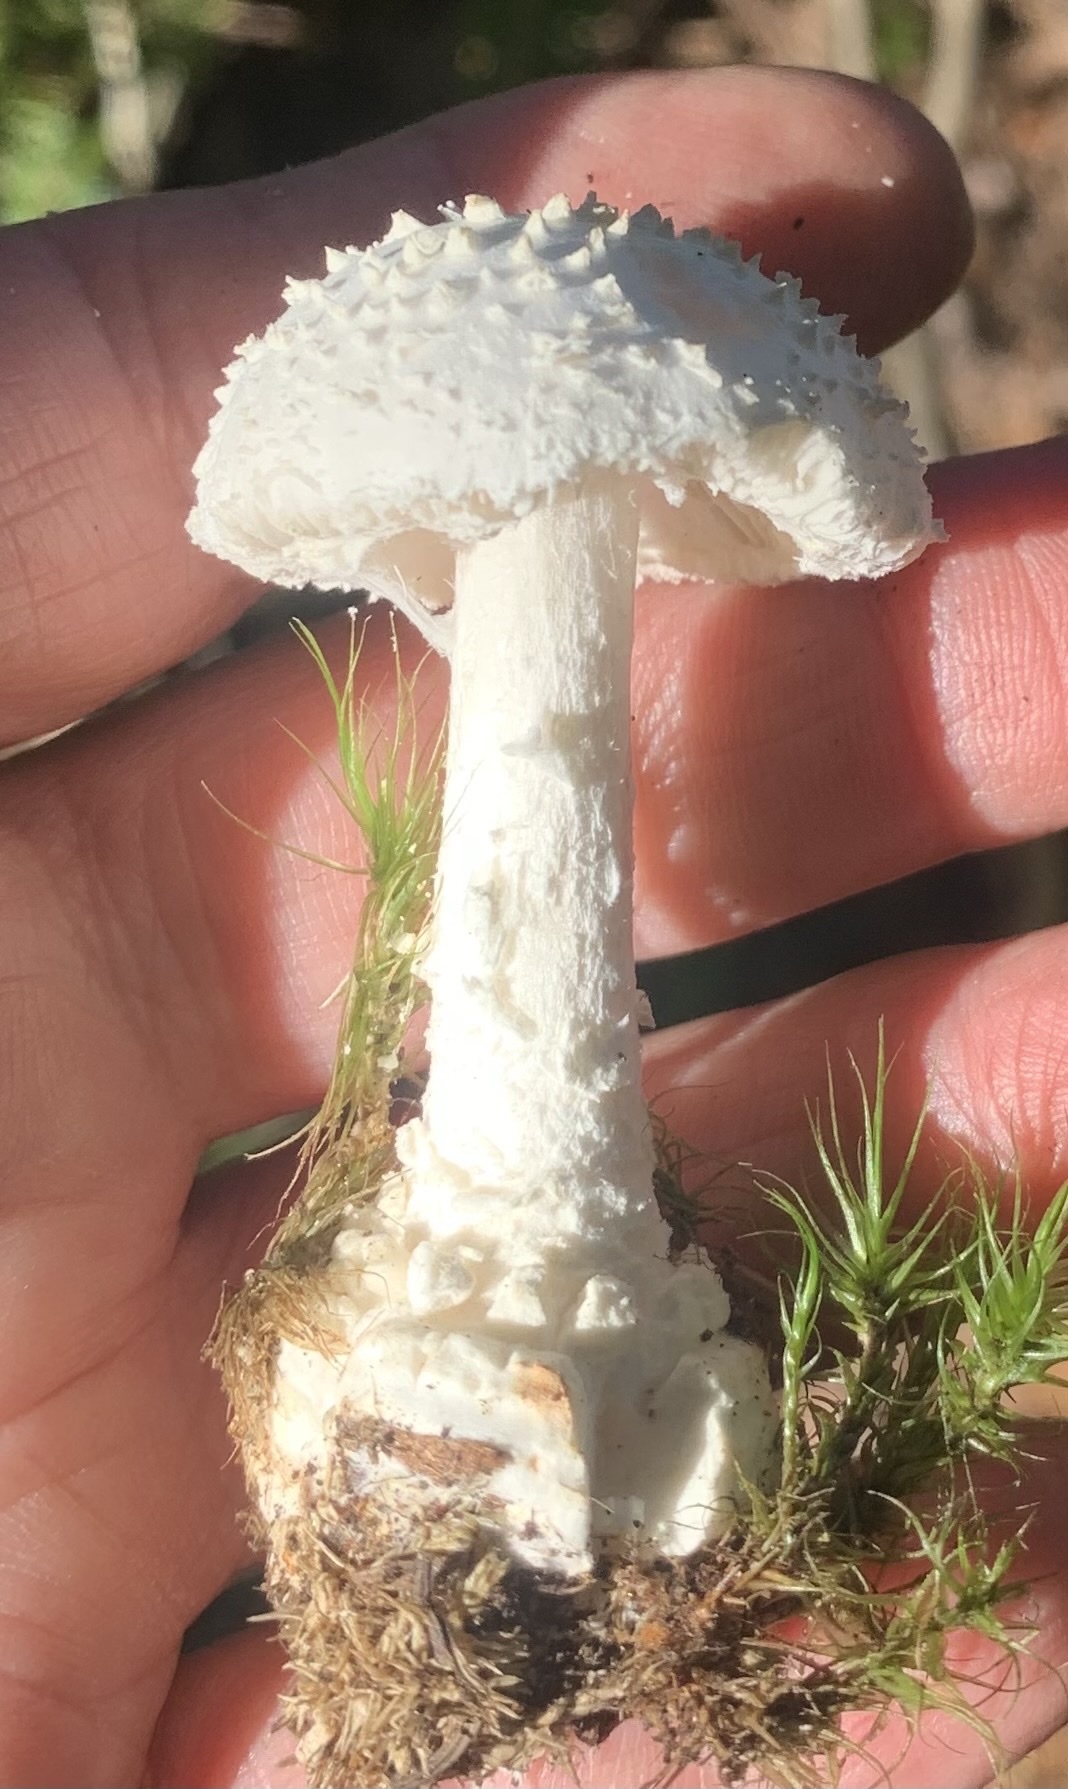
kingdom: Fungi
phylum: Basidiomycota
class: Agaricomycetes
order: Agaricales
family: Amanitaceae
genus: Amanita
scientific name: Amanita abrupta
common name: American abrupt-bulbed lepidella
